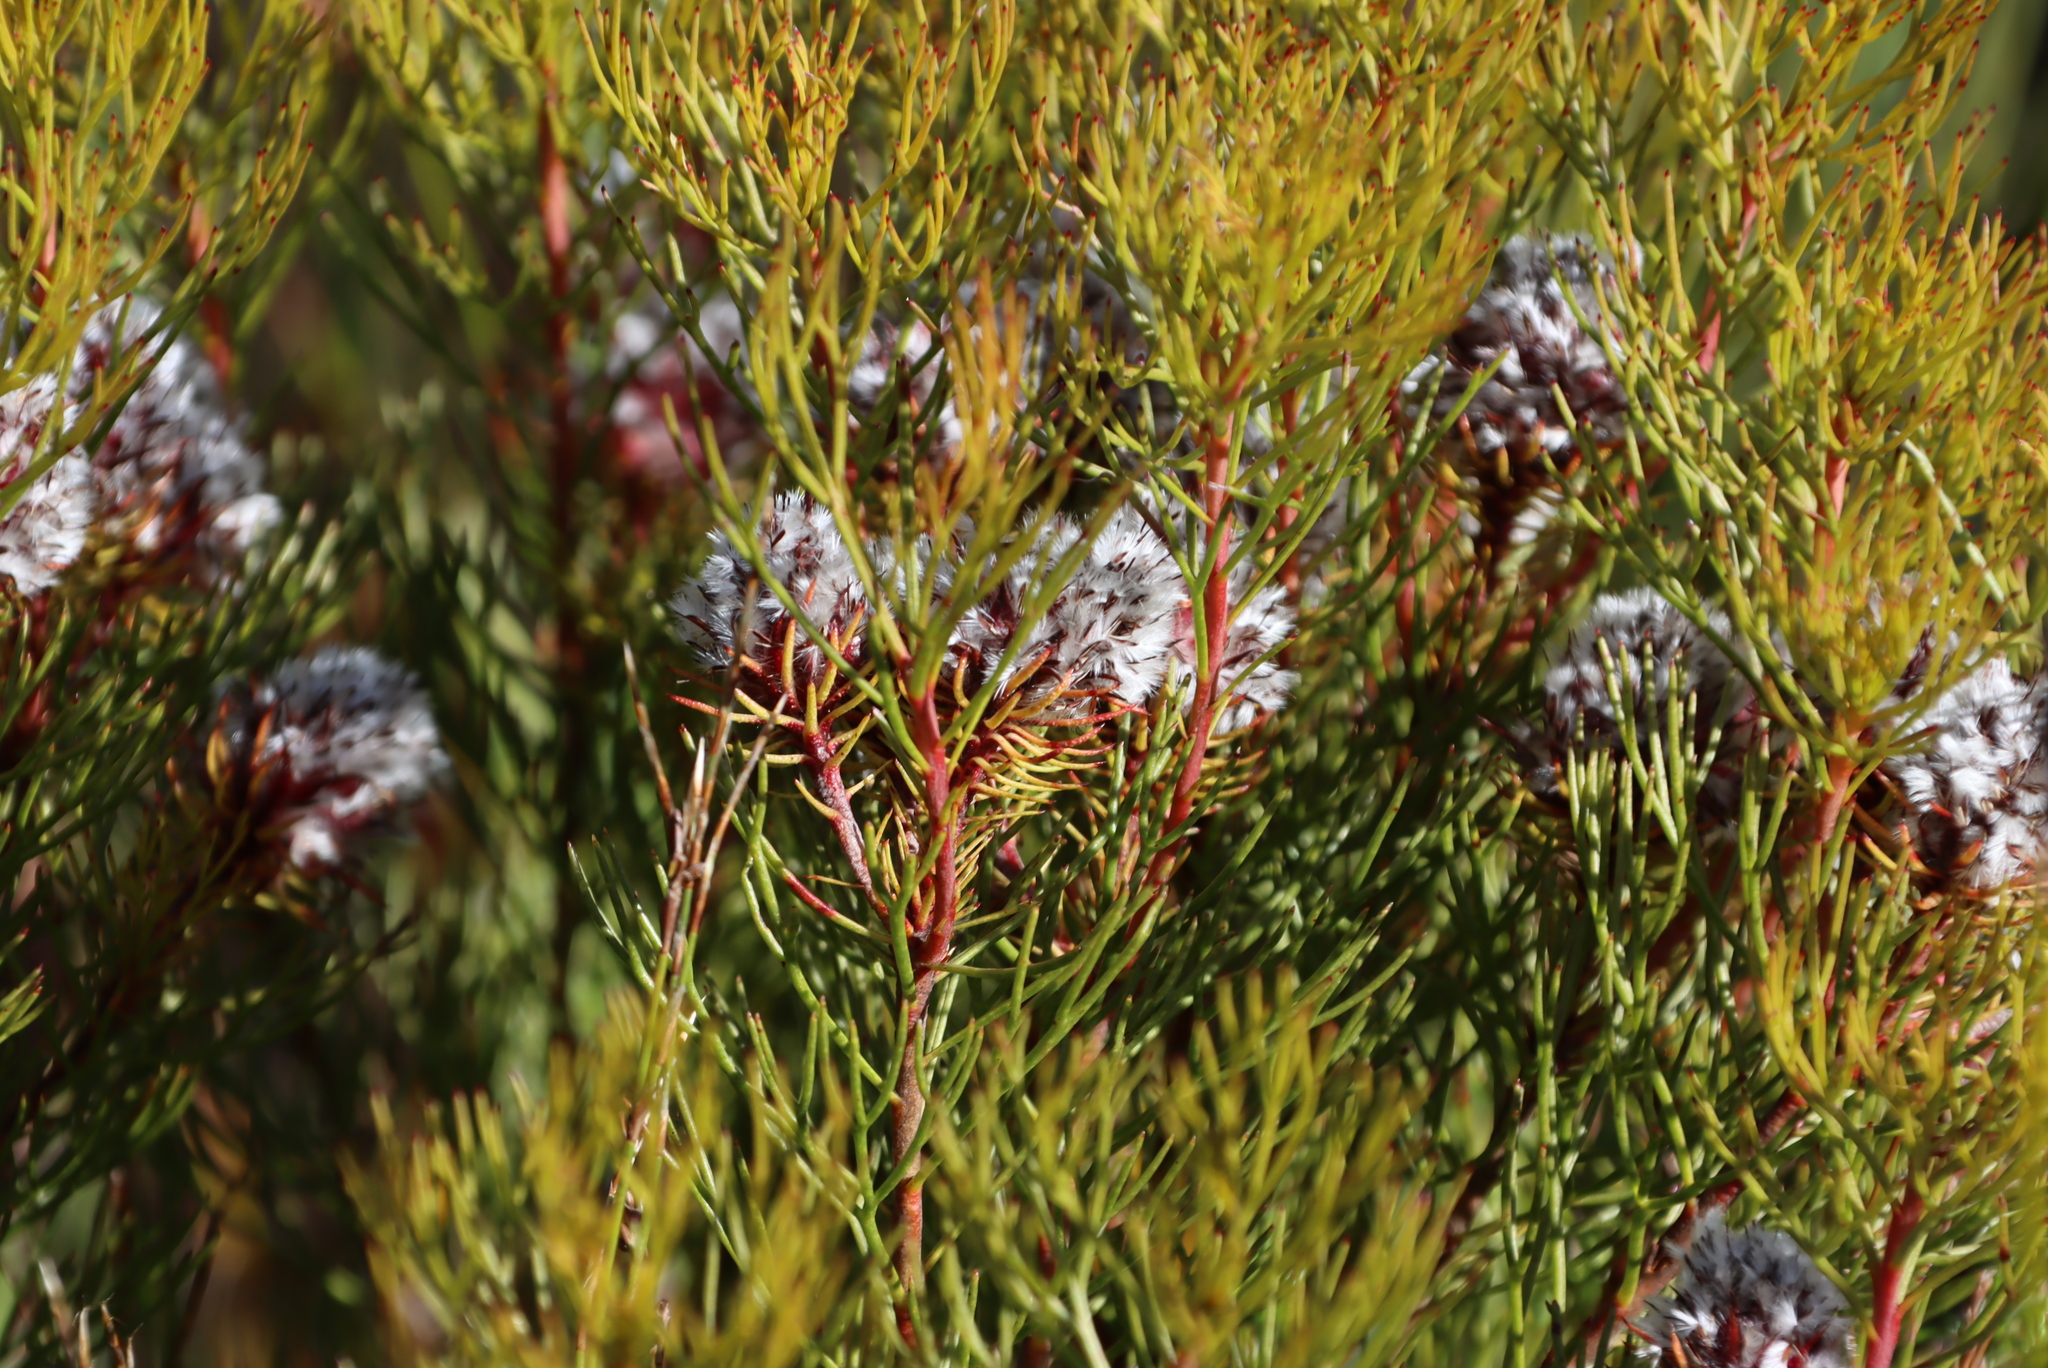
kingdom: Plantae
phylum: Tracheophyta
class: Magnoliopsida
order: Proteales
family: Proteaceae
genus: Serruria
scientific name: Serruria phylicoides
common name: Bearded spiderhead
